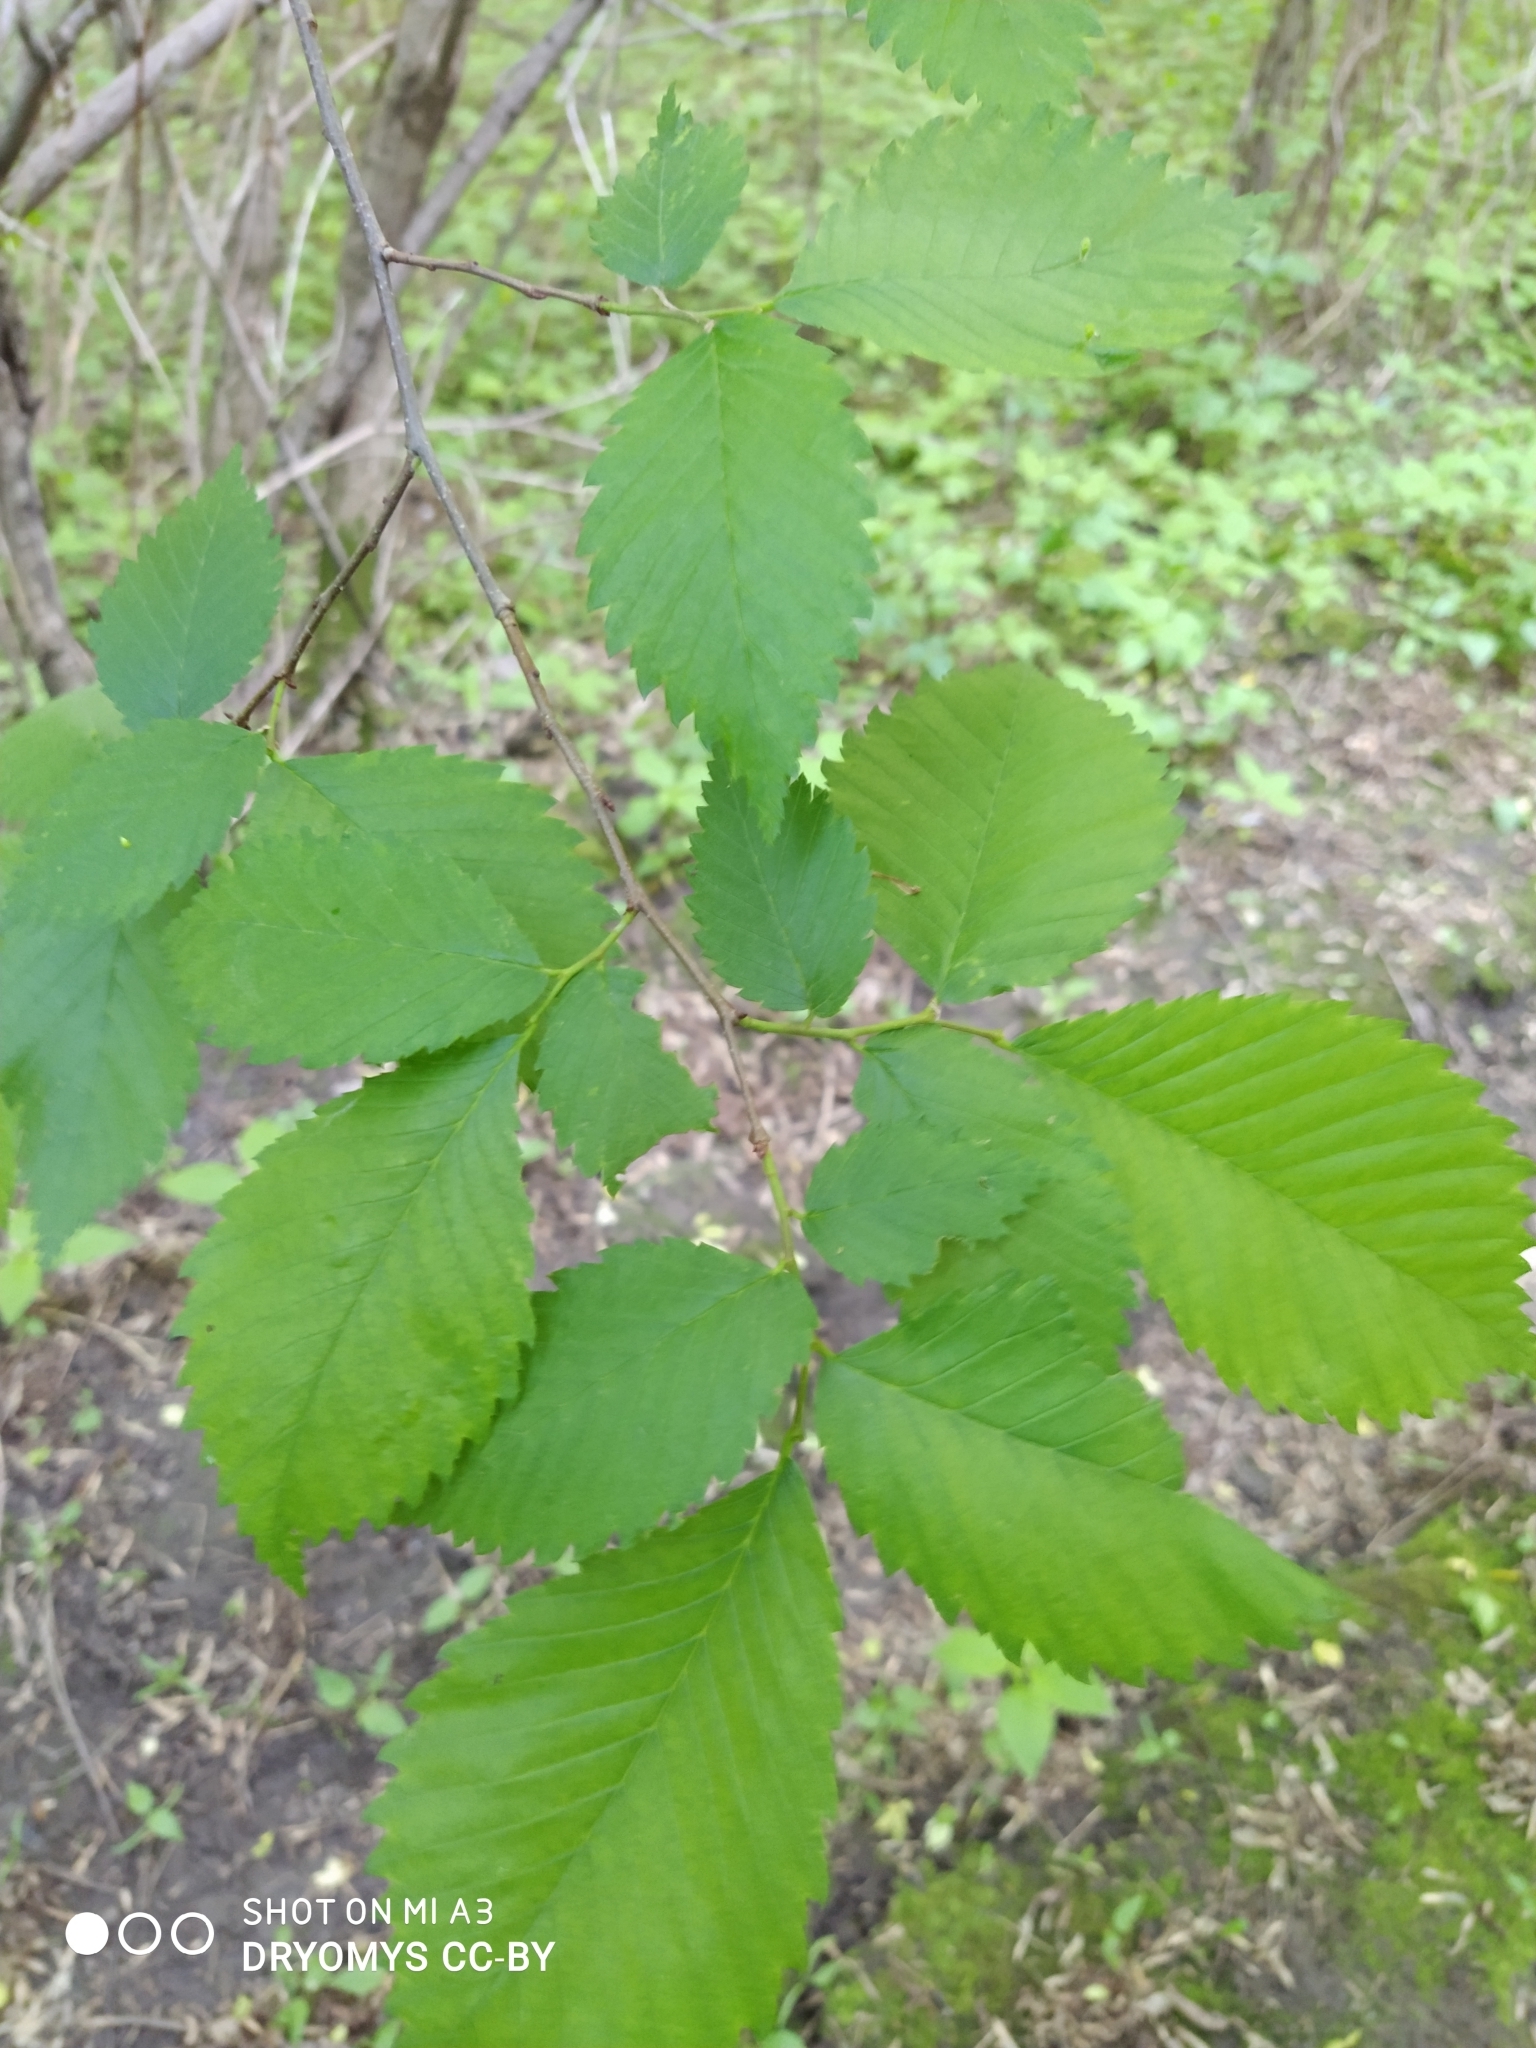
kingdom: Plantae
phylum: Tracheophyta
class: Magnoliopsida
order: Rosales
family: Ulmaceae
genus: Ulmus
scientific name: Ulmus laevis
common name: European white-elm
